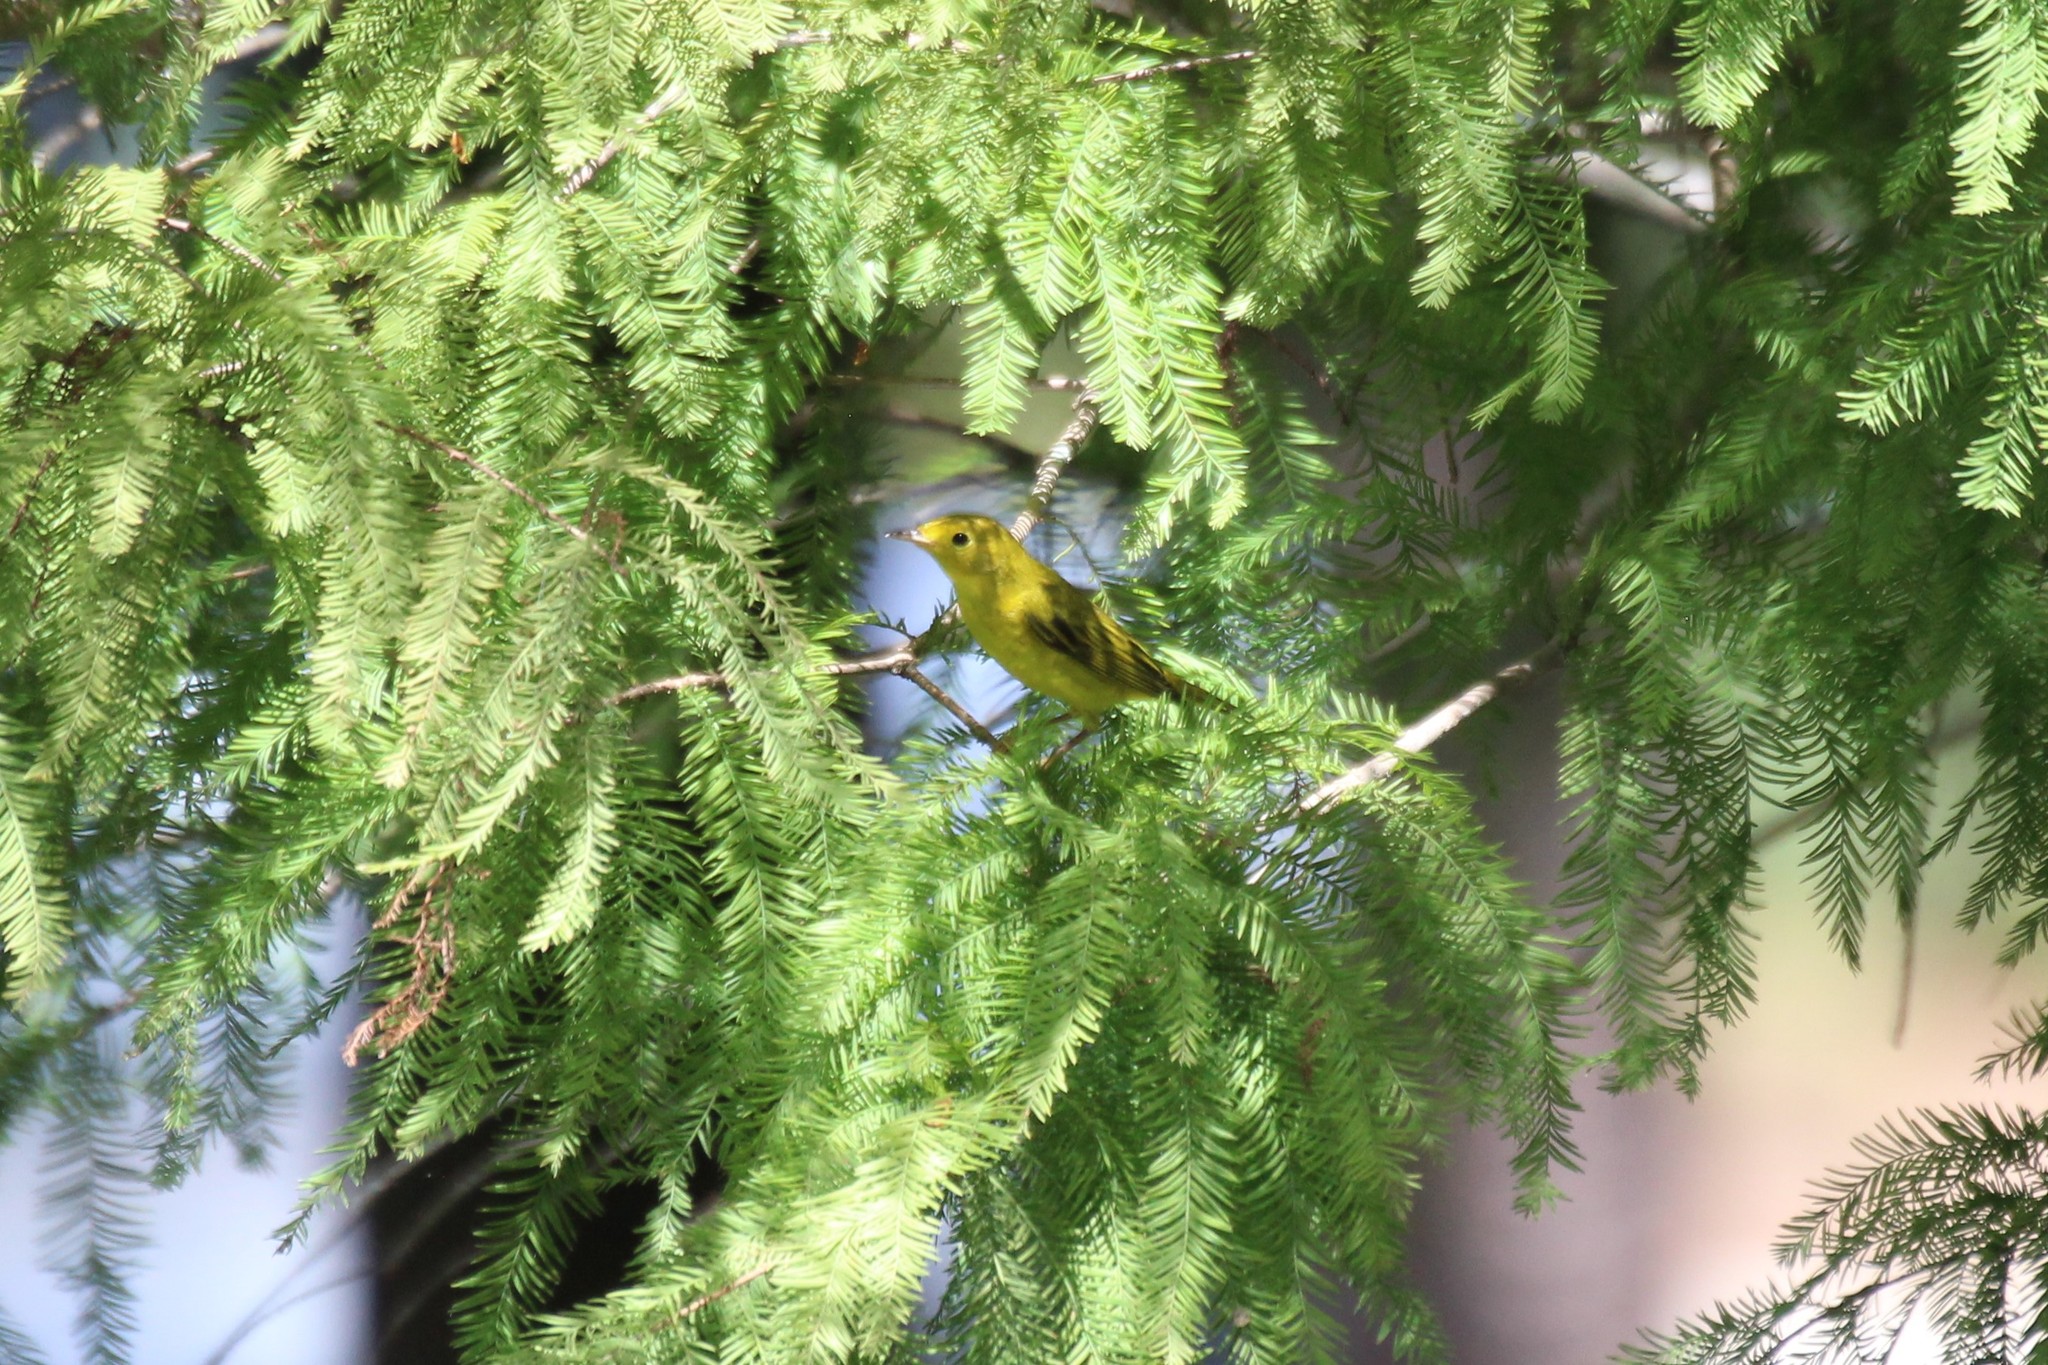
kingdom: Animalia
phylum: Chordata
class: Aves
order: Passeriformes
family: Parulidae
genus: Setophaga
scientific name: Setophaga petechia
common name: Yellow warbler
